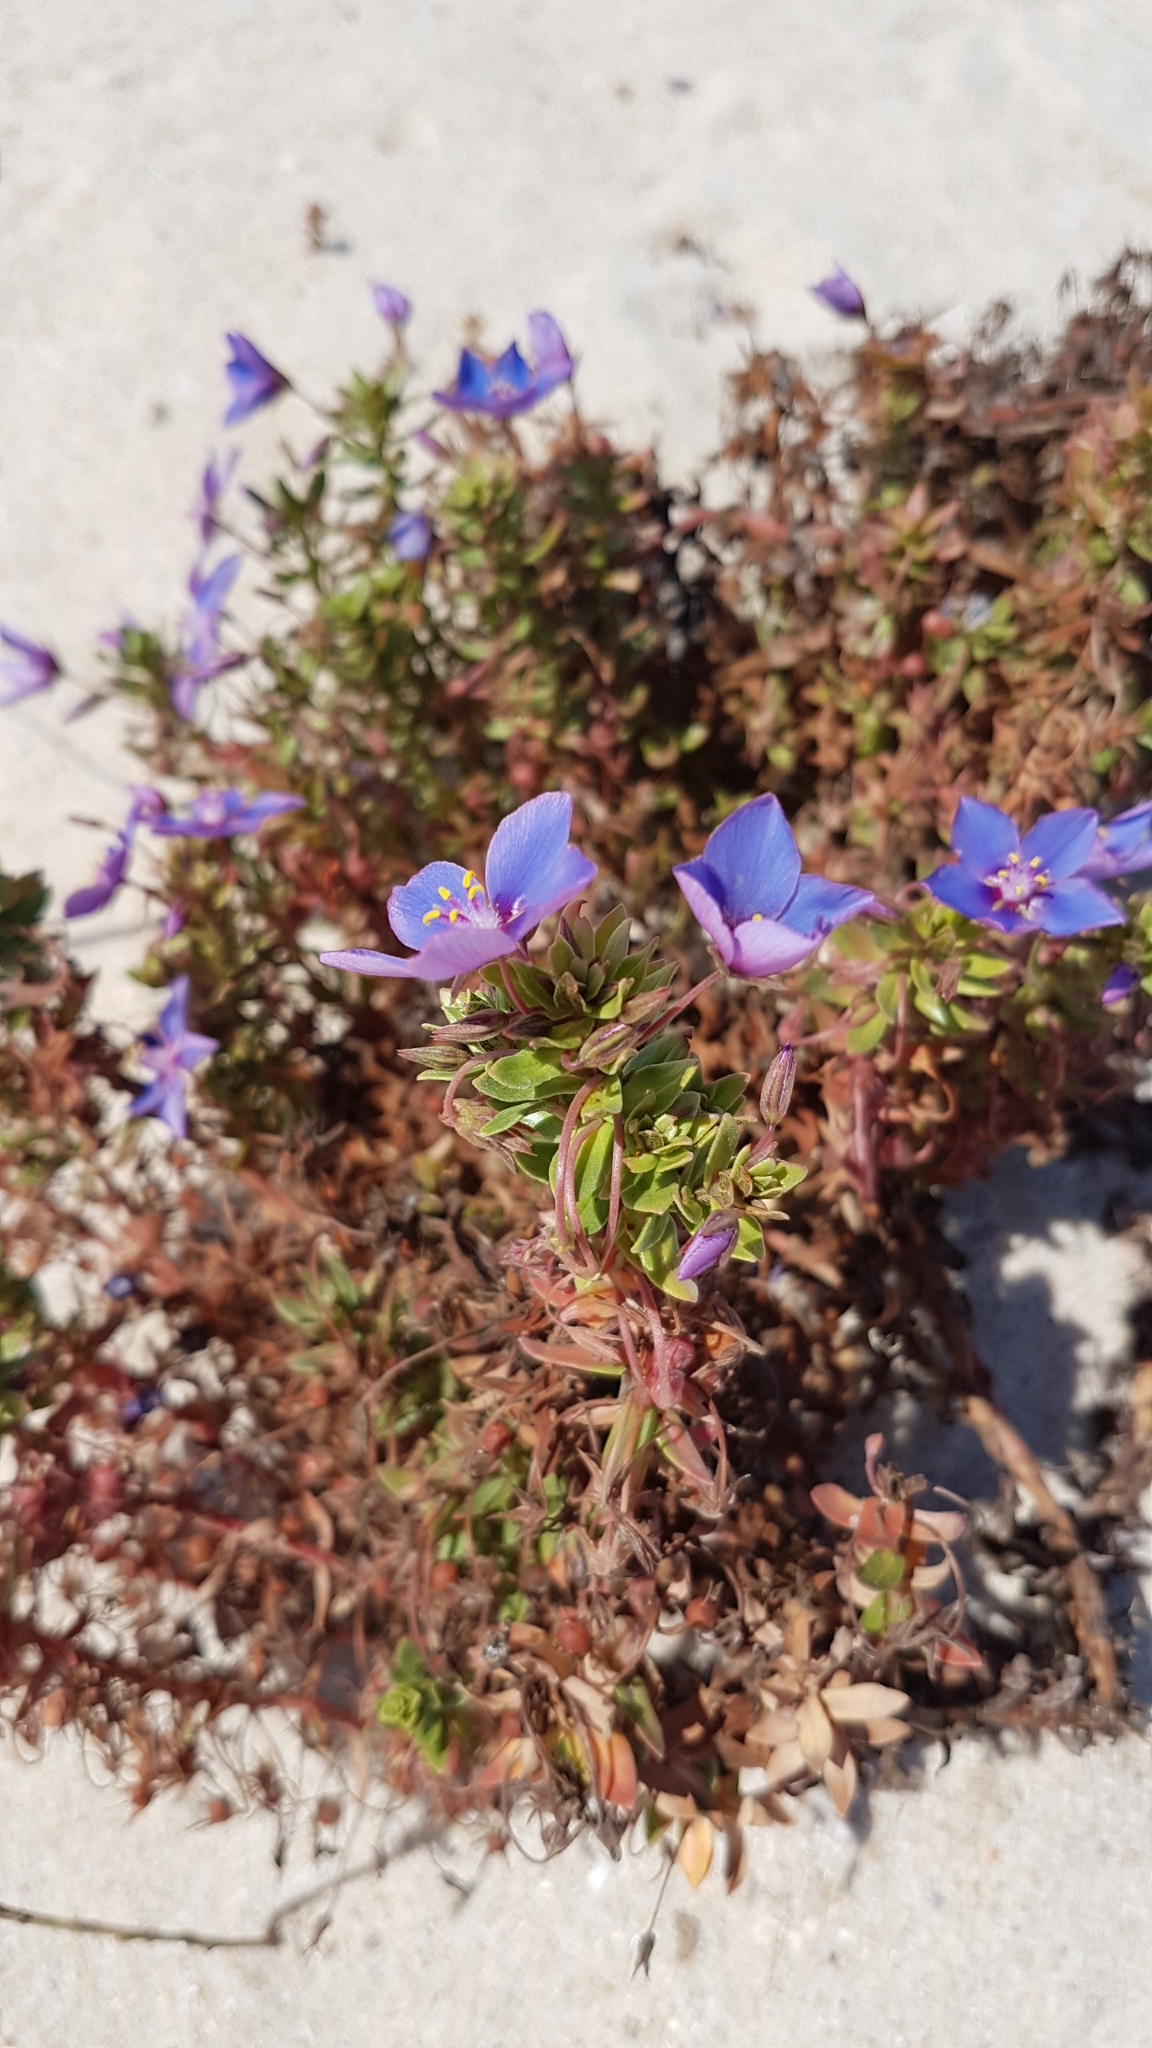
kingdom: Plantae
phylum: Tracheophyta
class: Magnoliopsida
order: Ericales
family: Primulaceae
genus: Lysimachia
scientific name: Lysimachia monelli
